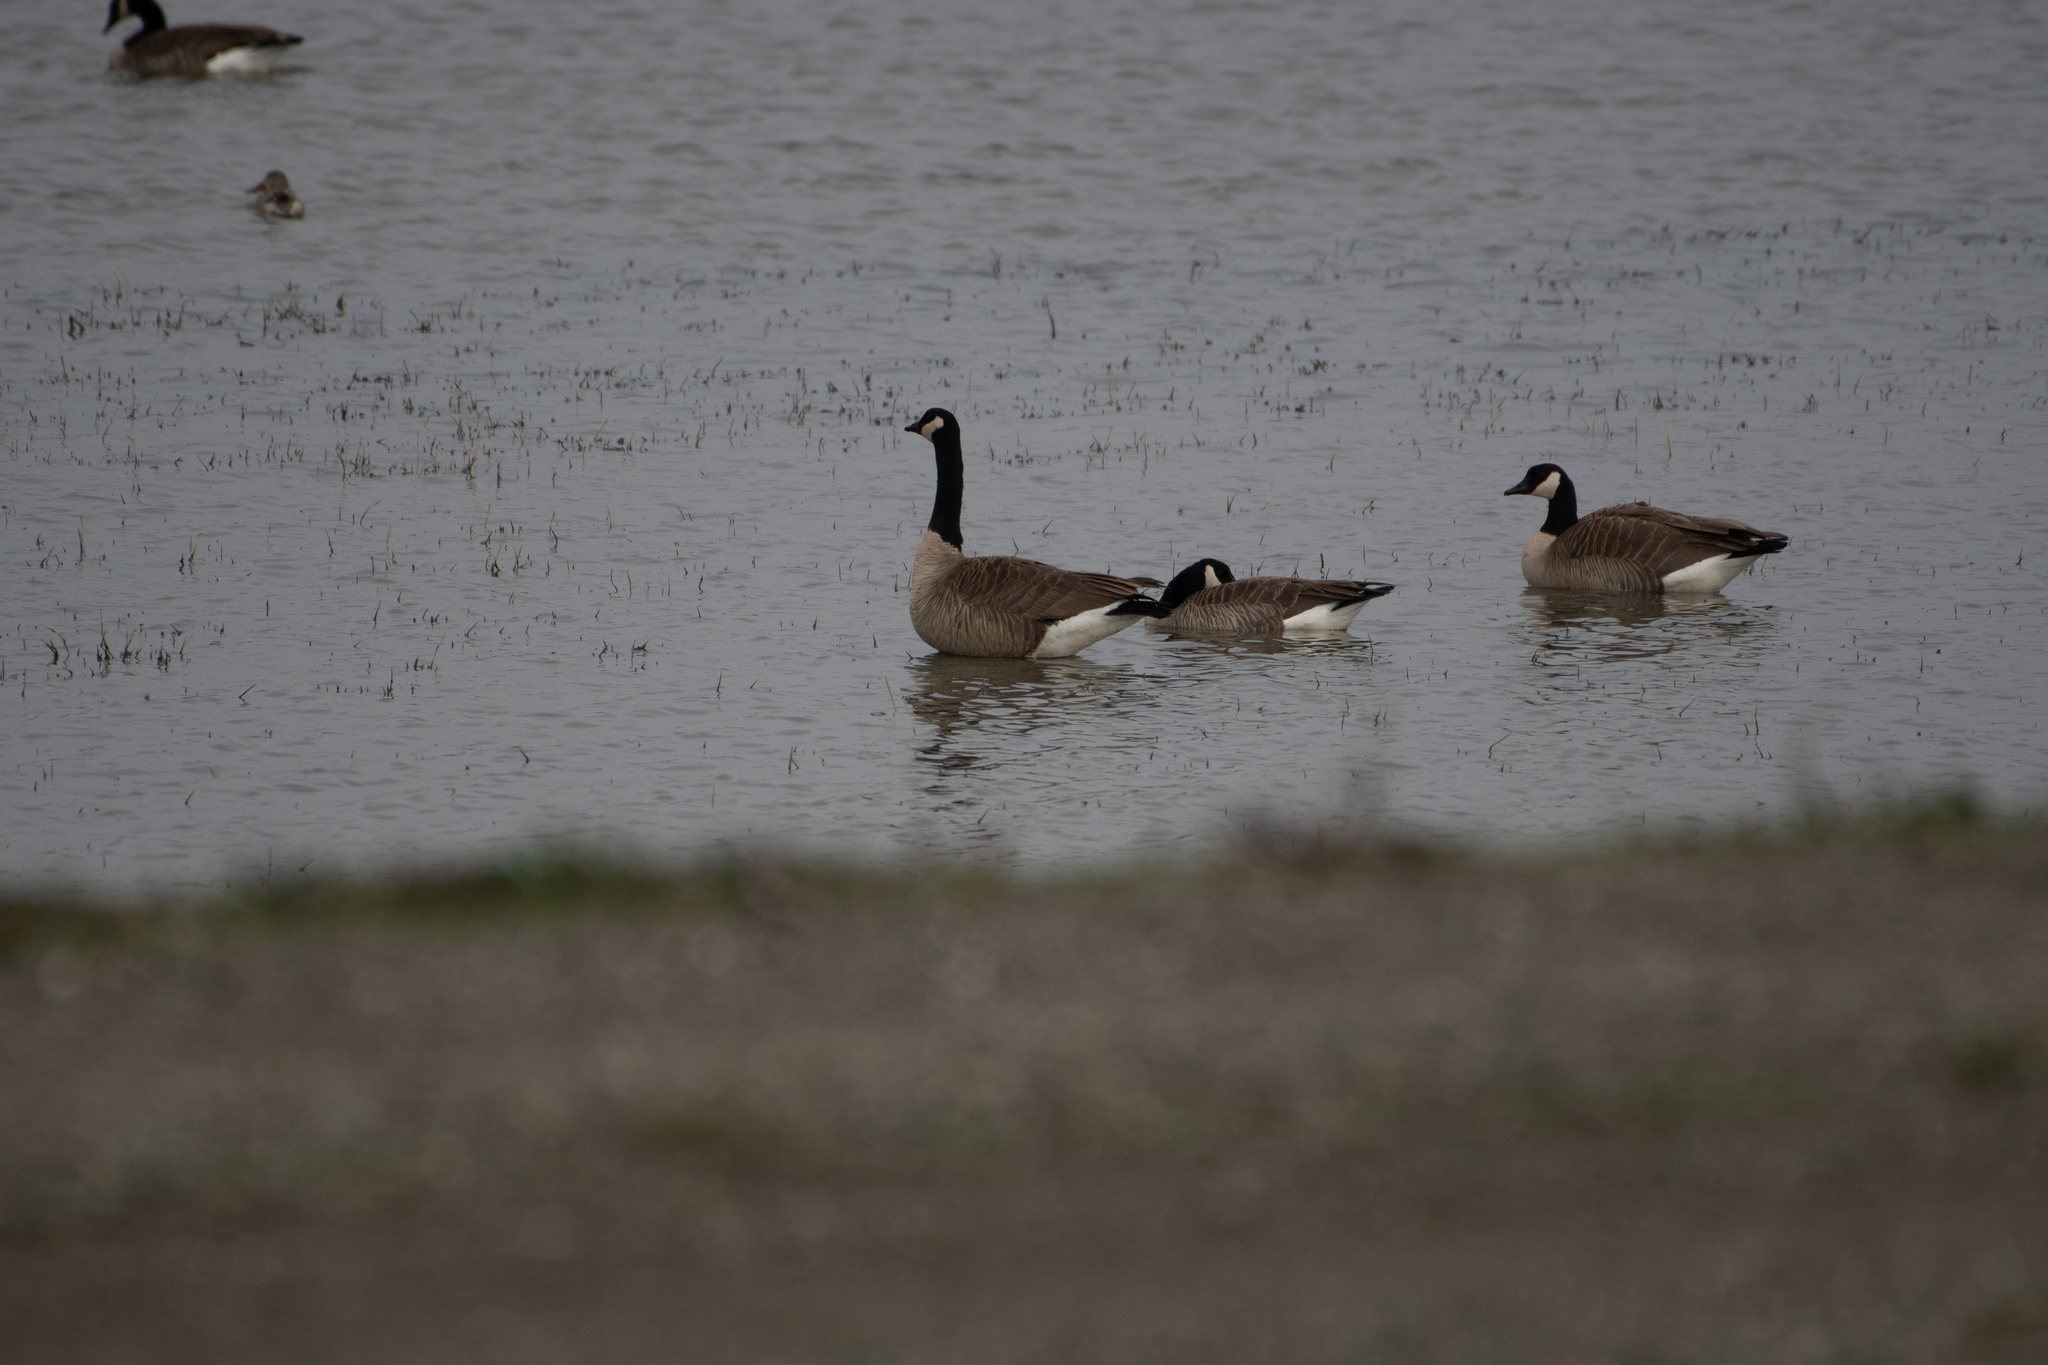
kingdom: Animalia
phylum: Chordata
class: Aves
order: Anseriformes
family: Anatidae
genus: Branta
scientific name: Branta canadensis
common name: Canada goose
